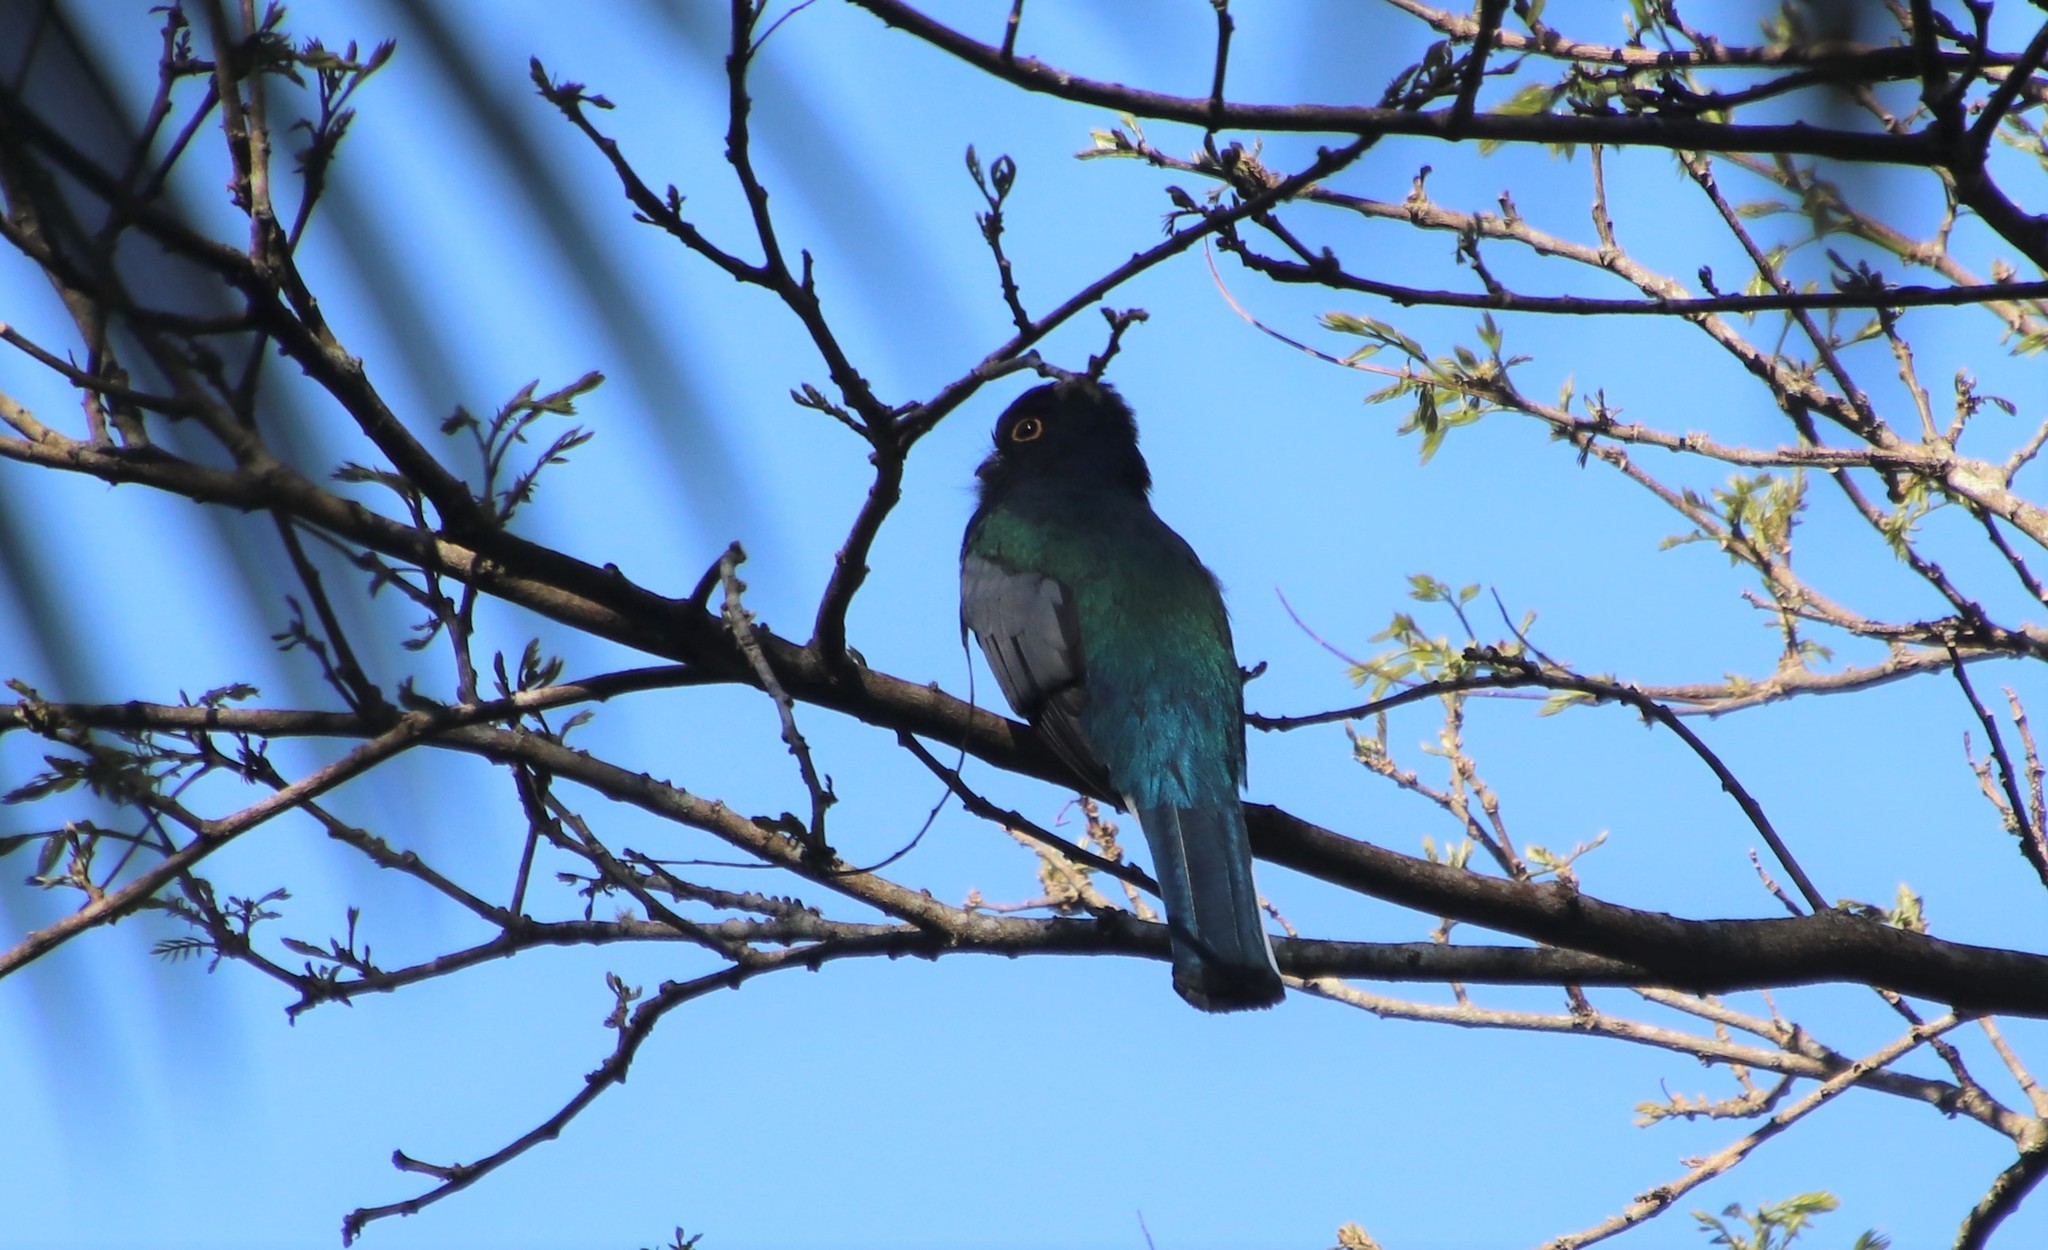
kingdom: Animalia
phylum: Chordata
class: Aves
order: Trogoniformes
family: Trogonidae
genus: Trogon
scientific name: Trogon surrucura
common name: Surucua trogon
